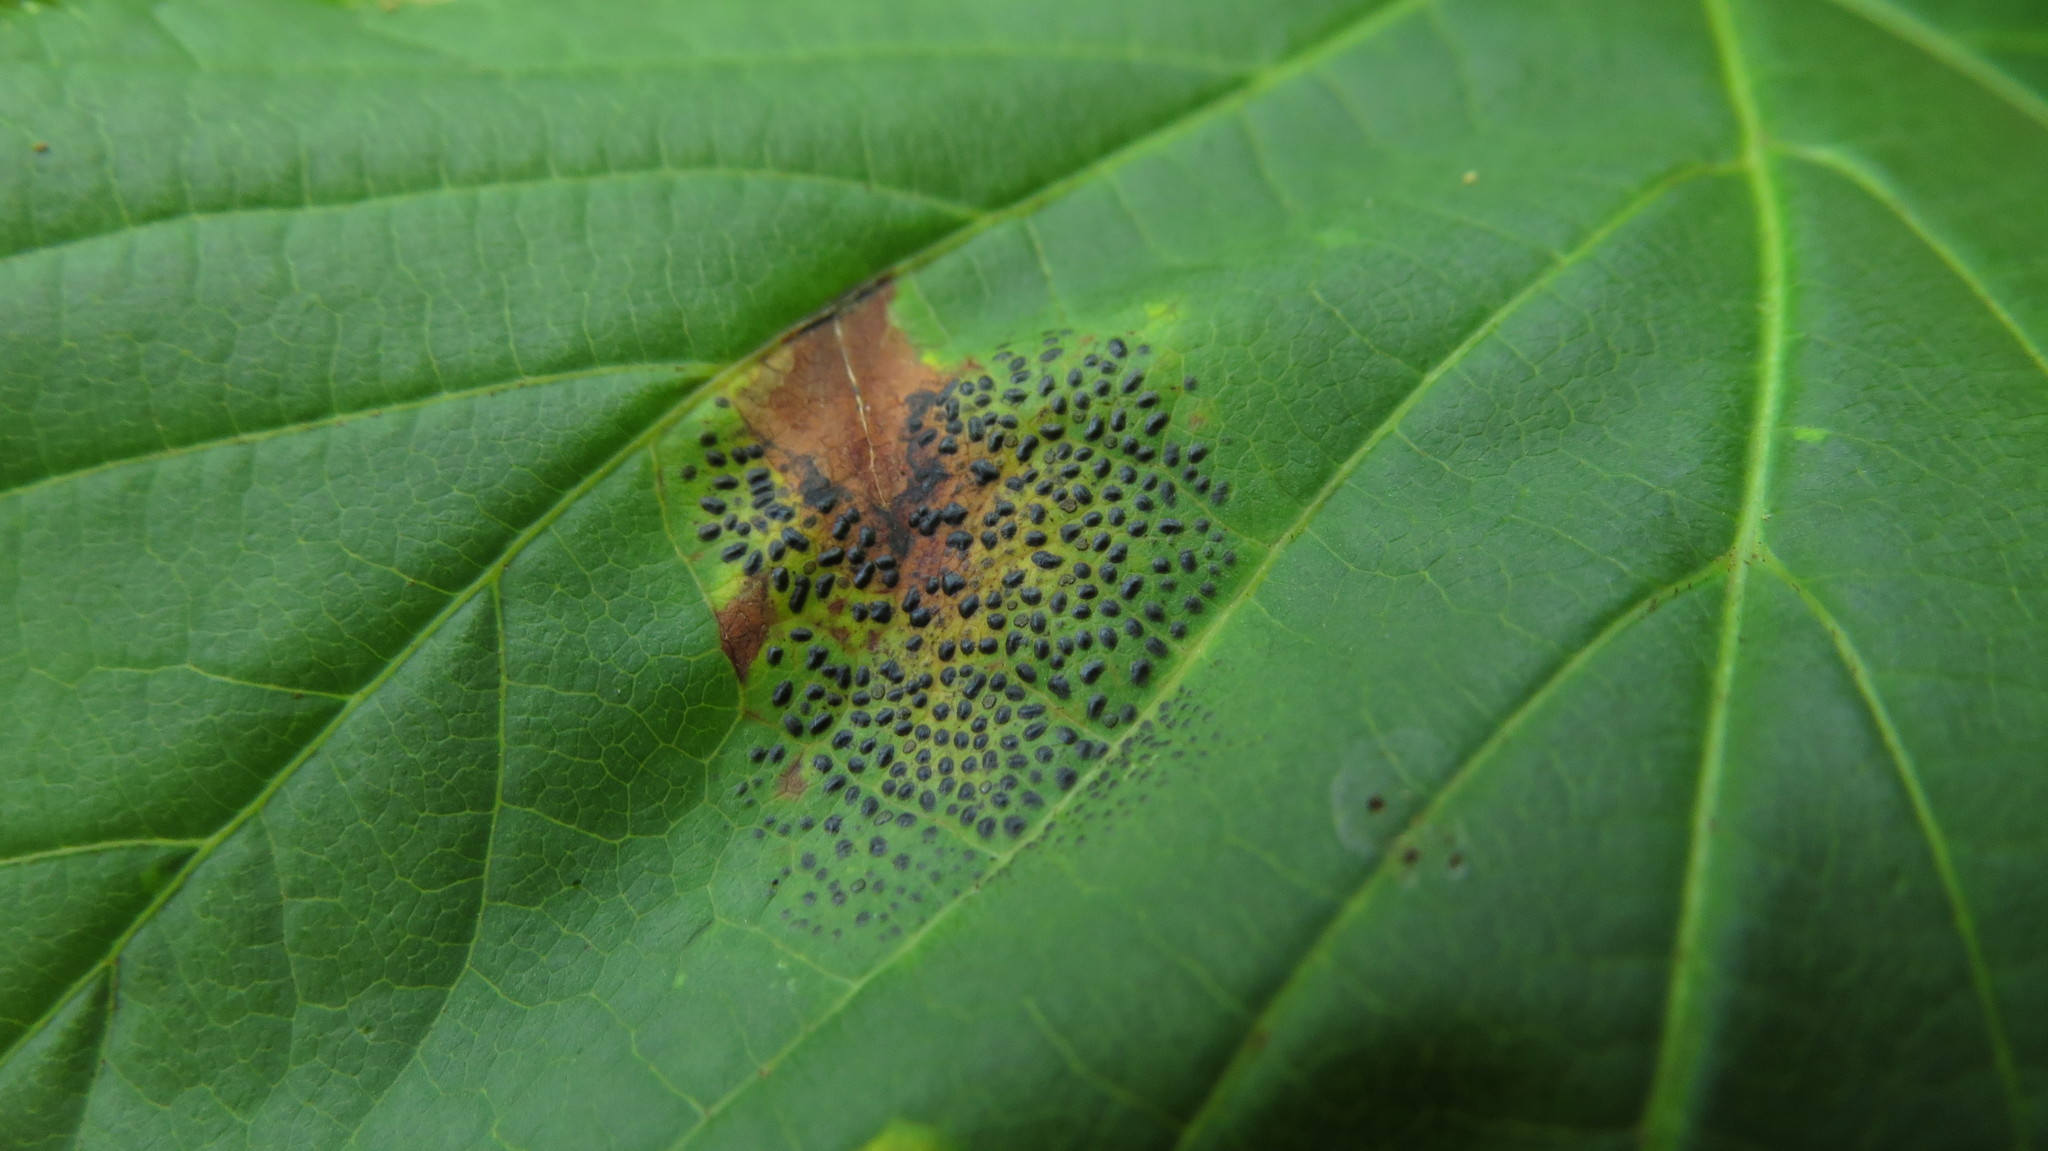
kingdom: Fungi
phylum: Ascomycota
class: Leotiomycetes
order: Rhytismatales
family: Rhytismataceae
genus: Rhytisma
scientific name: Rhytisma punctatum
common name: Speckled tar spot
